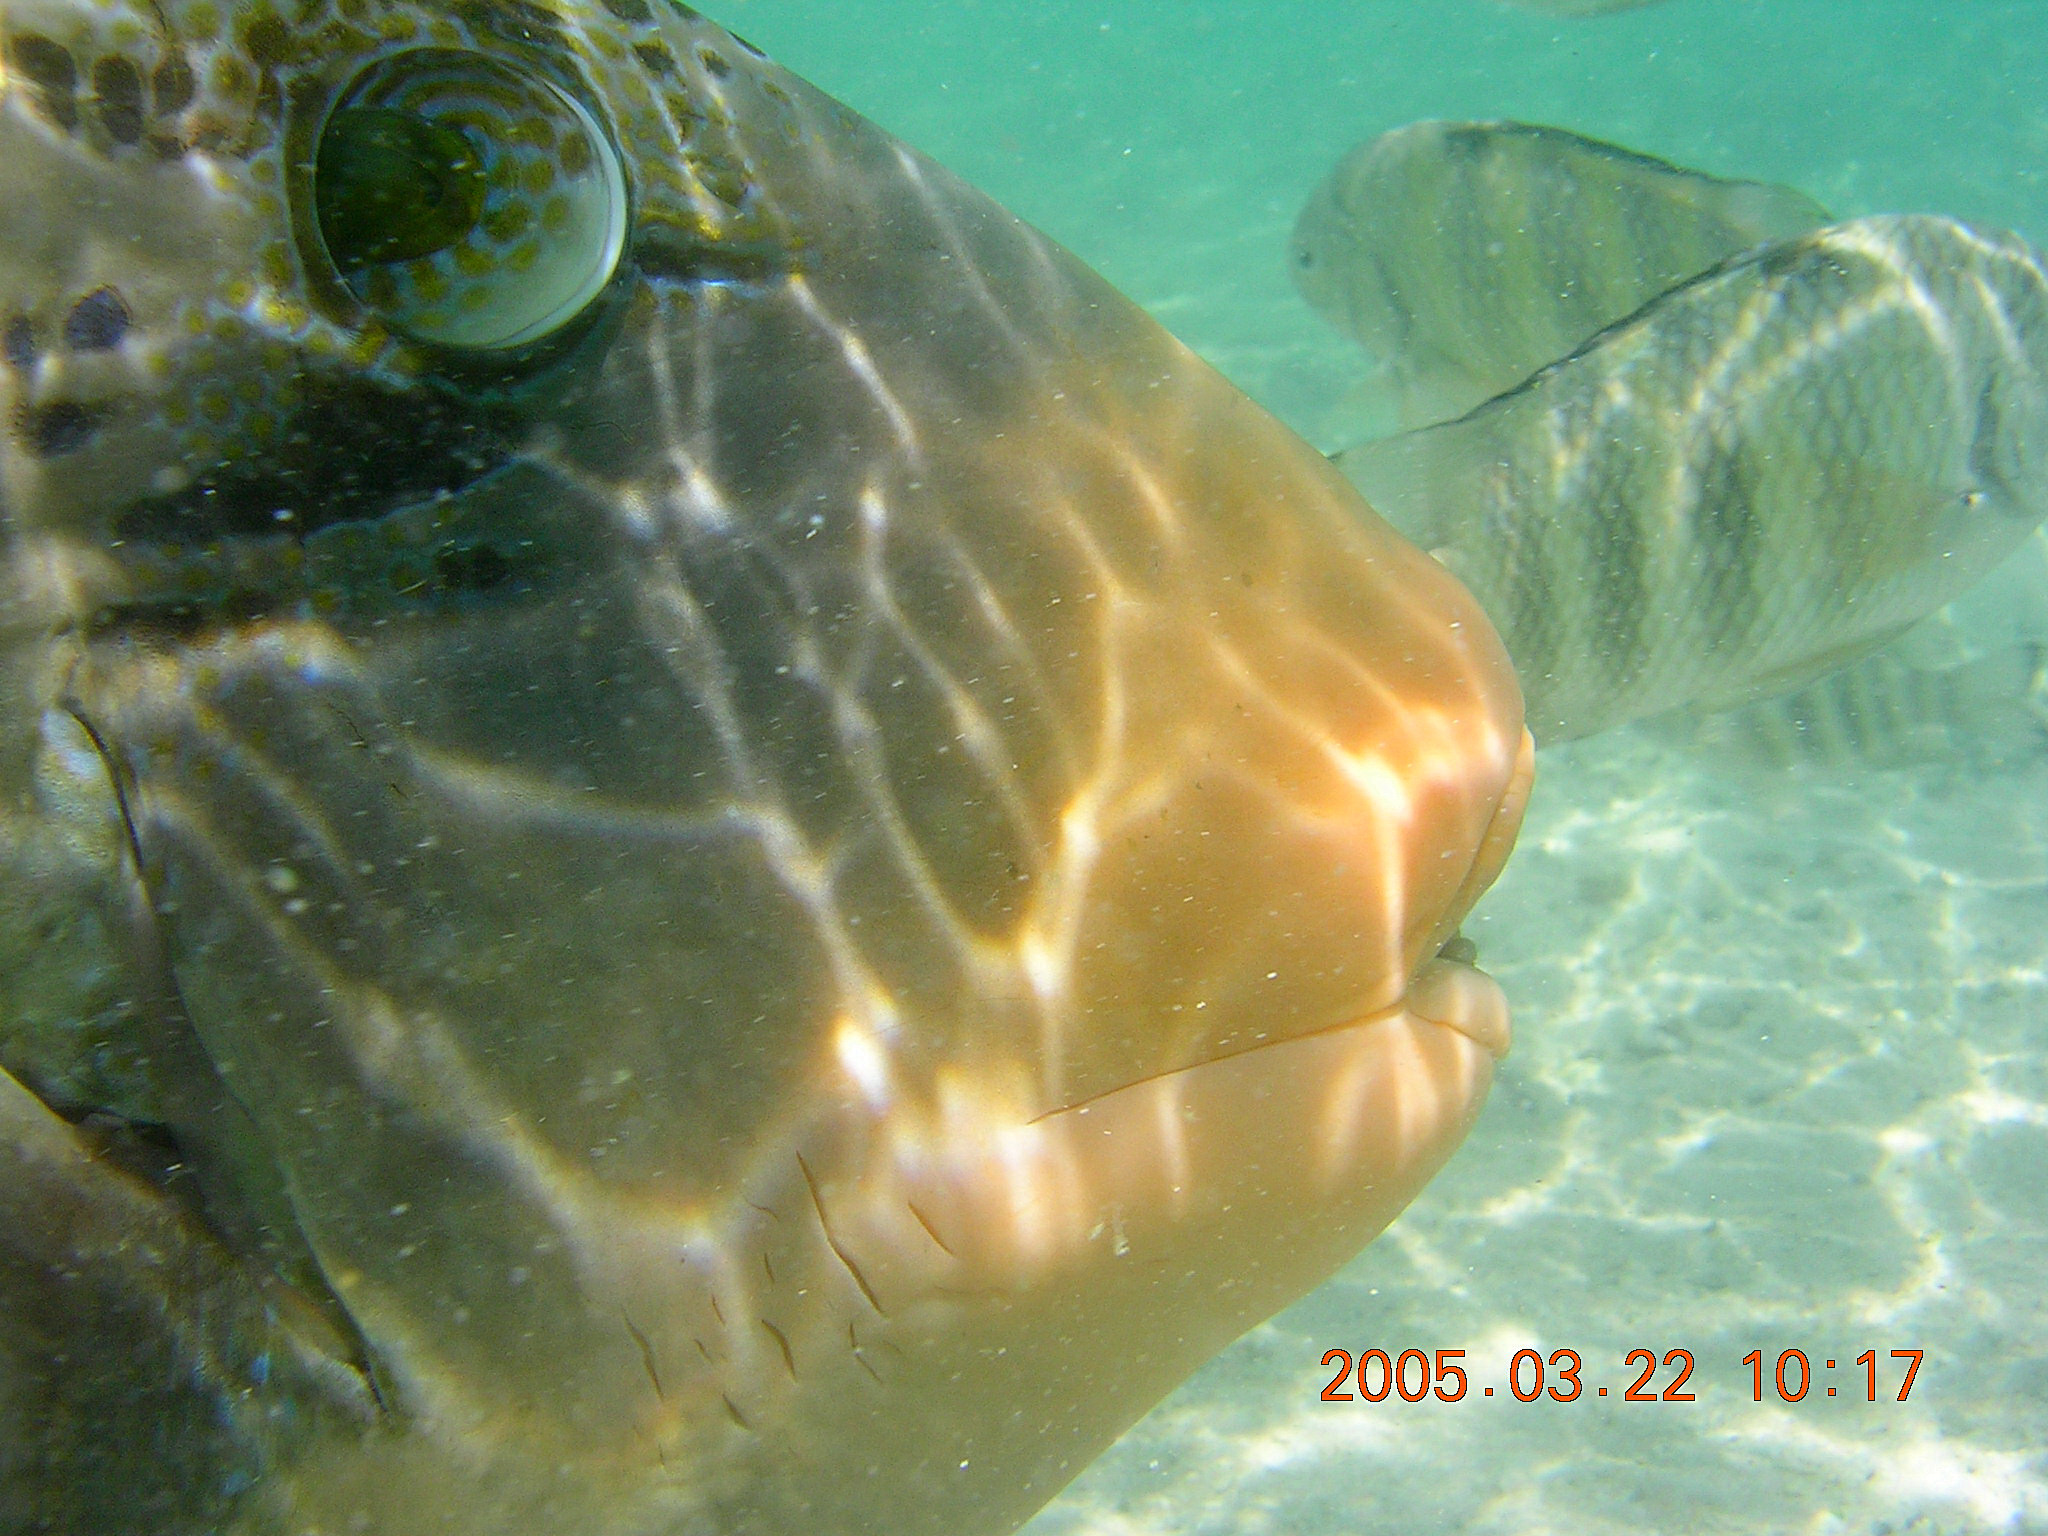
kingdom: Animalia
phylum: Chordata
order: Tetraodontiformes
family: Balistidae
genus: Pseudobalistes
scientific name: Pseudobalistes flavimarginatus
